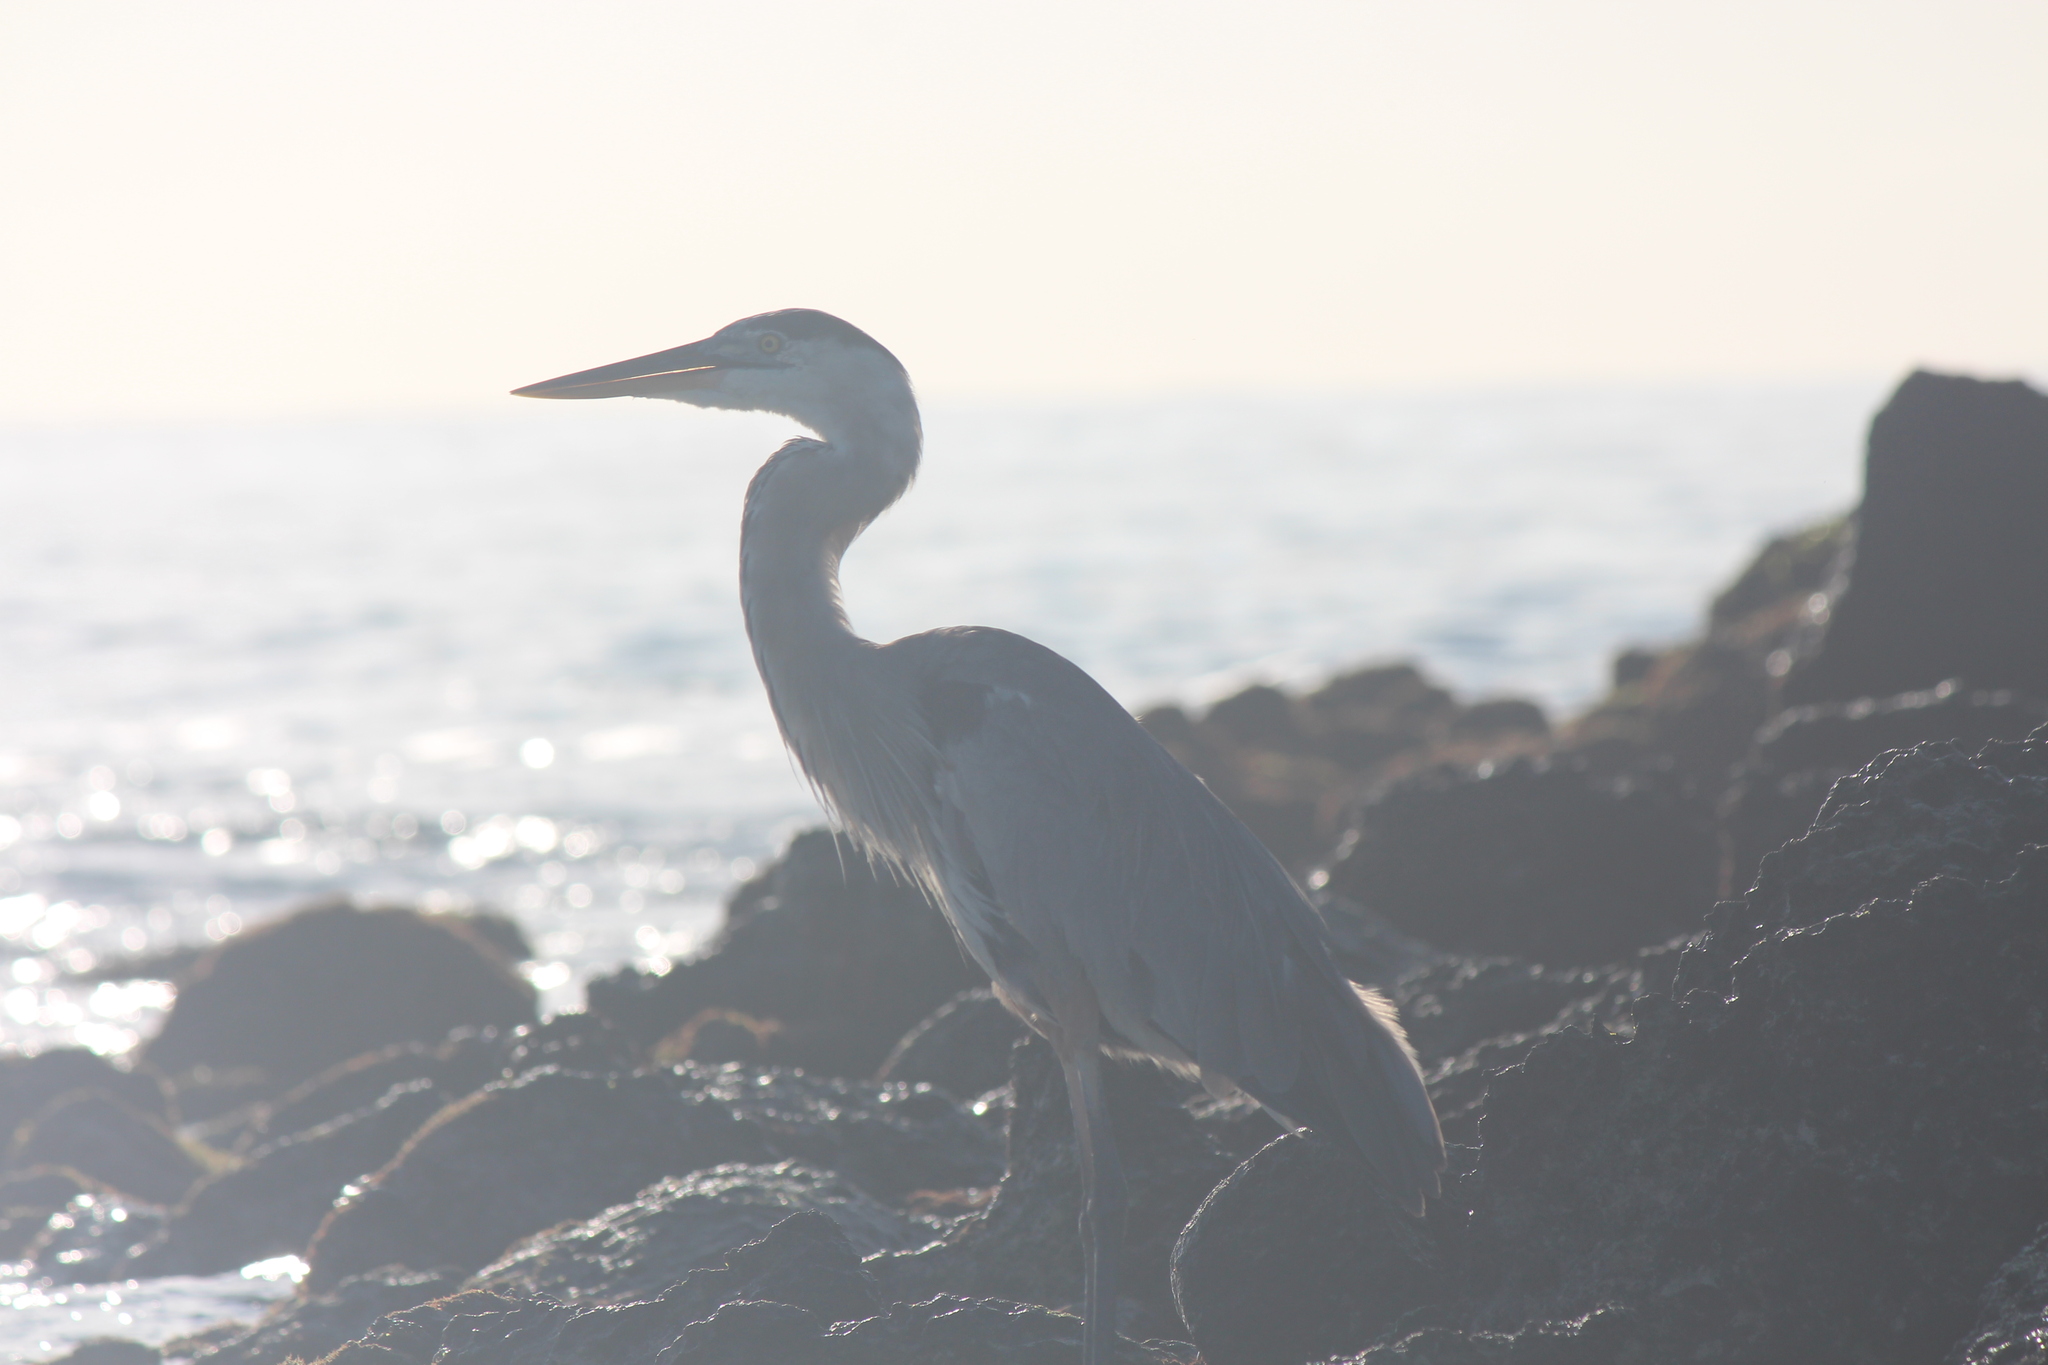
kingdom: Animalia
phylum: Chordata
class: Aves
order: Pelecaniformes
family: Ardeidae
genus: Ardea
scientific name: Ardea herodias
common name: Great blue heron
